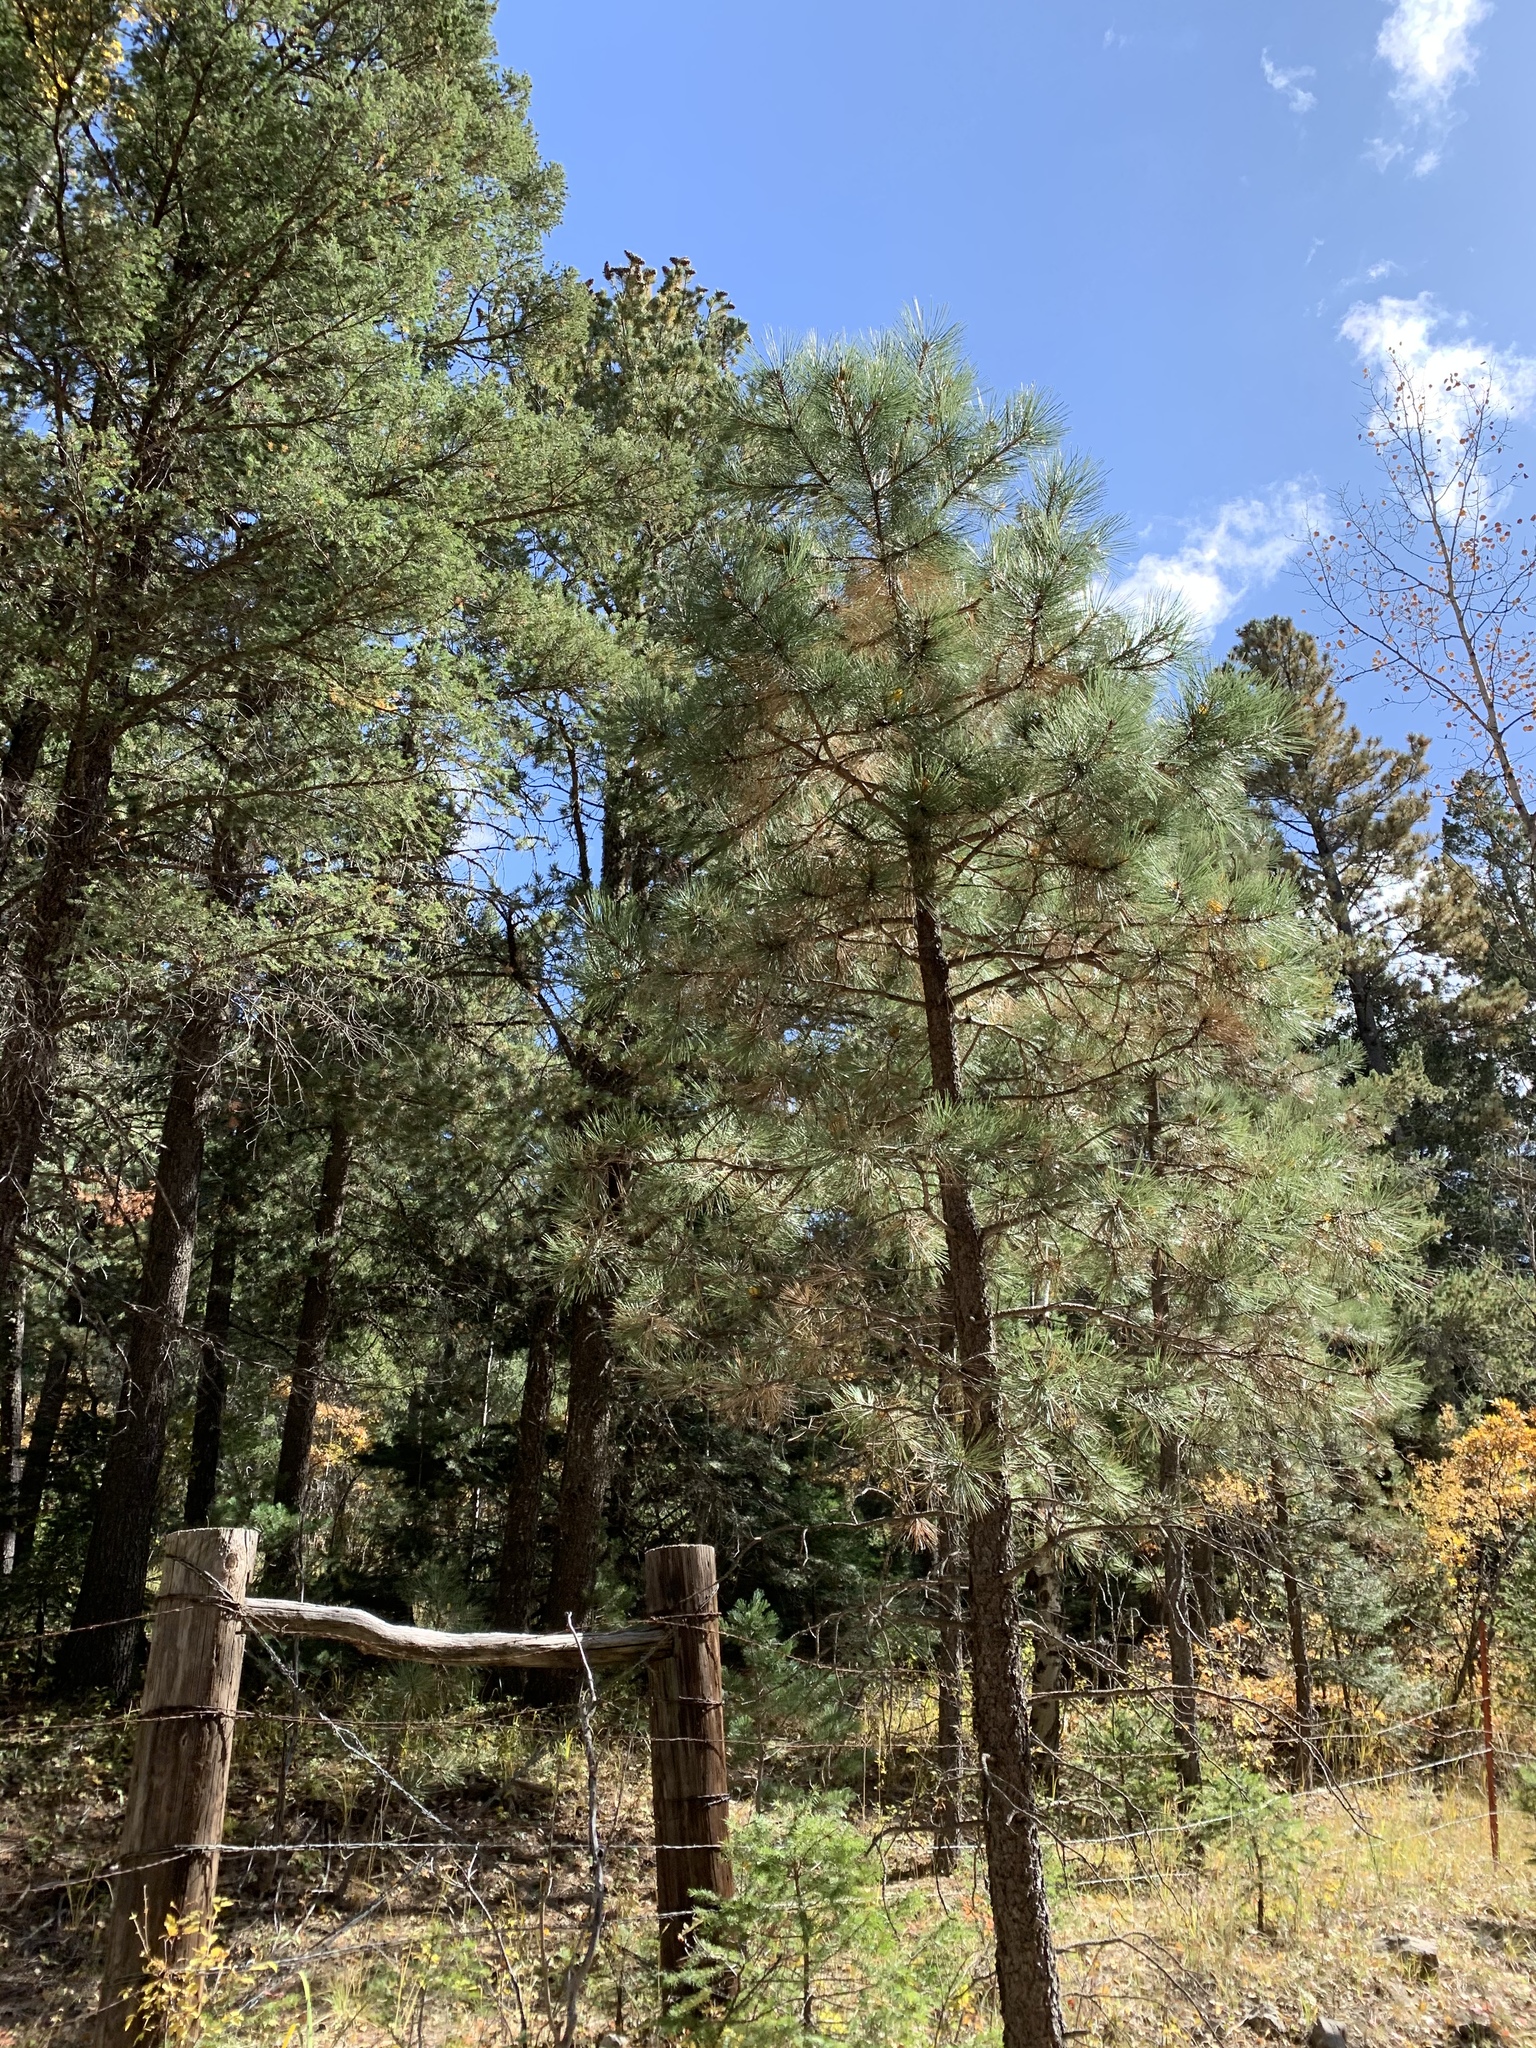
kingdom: Plantae
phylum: Tracheophyta
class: Pinopsida
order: Pinales
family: Pinaceae
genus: Pinus
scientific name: Pinus ponderosa
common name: Western yellow-pine
